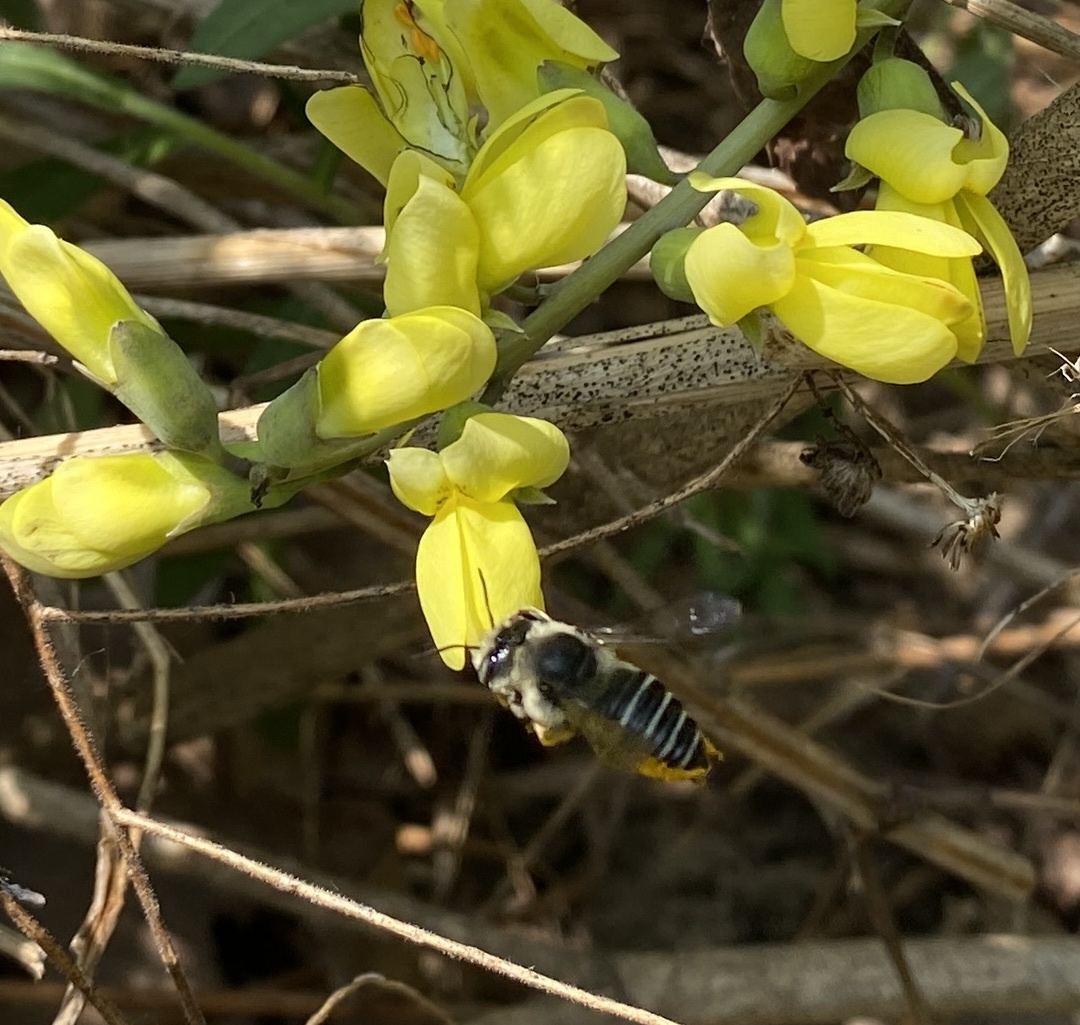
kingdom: Animalia
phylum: Arthropoda
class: Insecta
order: Hymenoptera
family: Megachilidae
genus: Megachile
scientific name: Megachile latimanus
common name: Leafcutting bee
